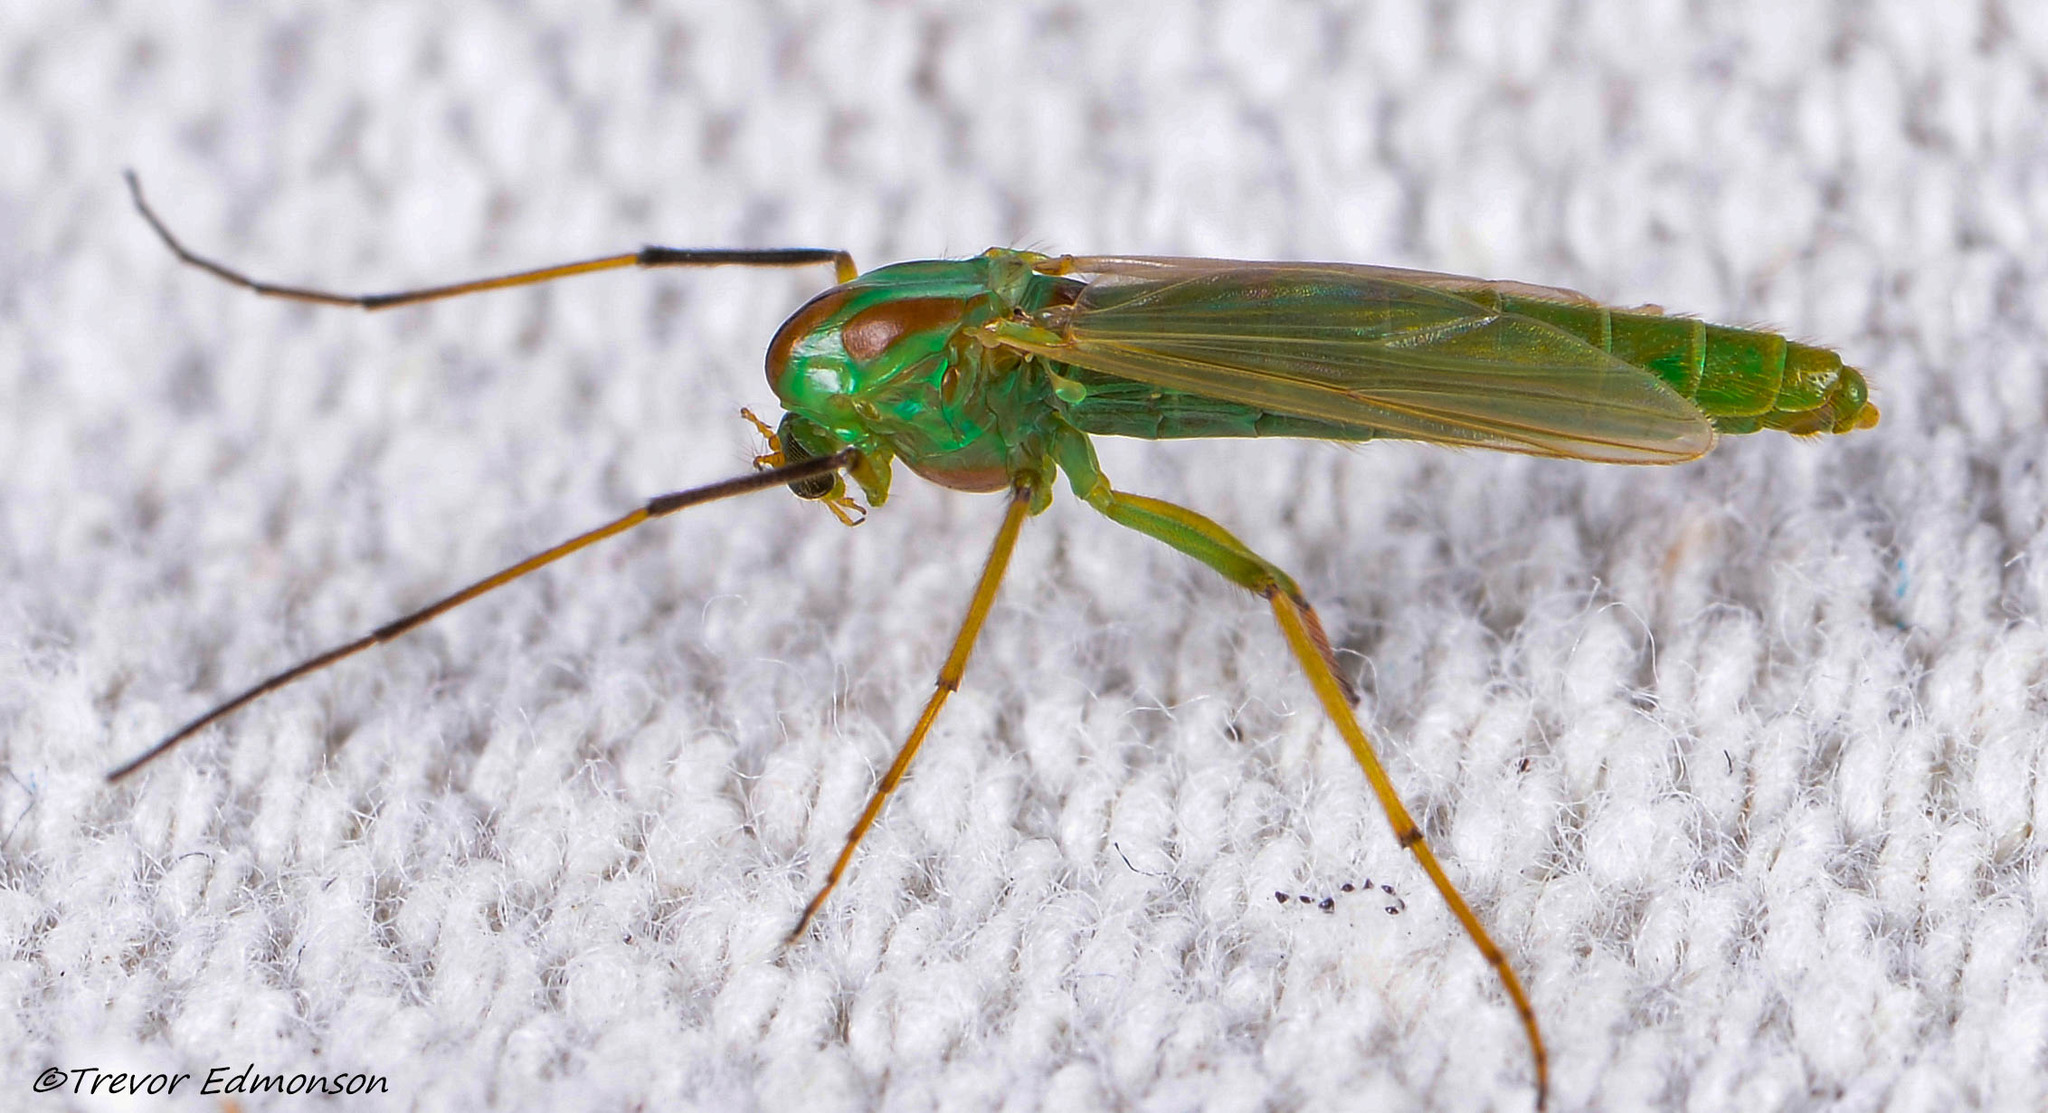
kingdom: Animalia
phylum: Arthropoda
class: Insecta
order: Diptera
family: Chironomidae
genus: Axarus
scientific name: Axarus
